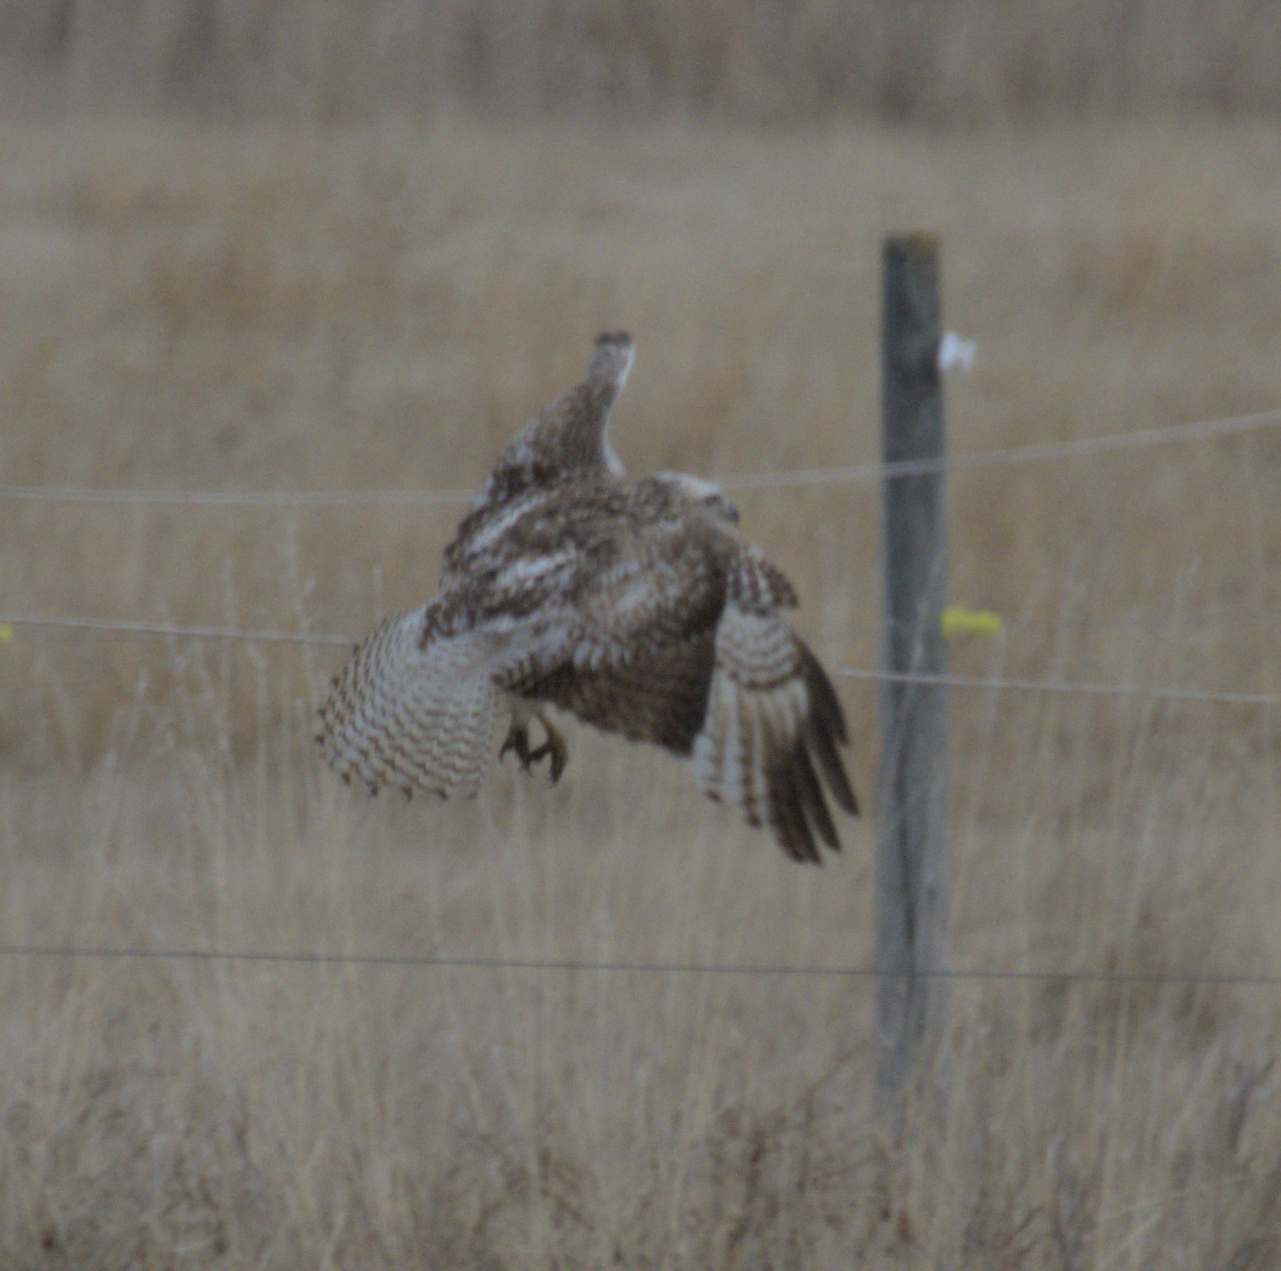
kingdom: Animalia
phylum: Chordata
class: Aves
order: Accipitriformes
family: Accipitridae
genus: Buteo
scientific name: Buteo jamaicensis
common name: Red-tailed hawk
